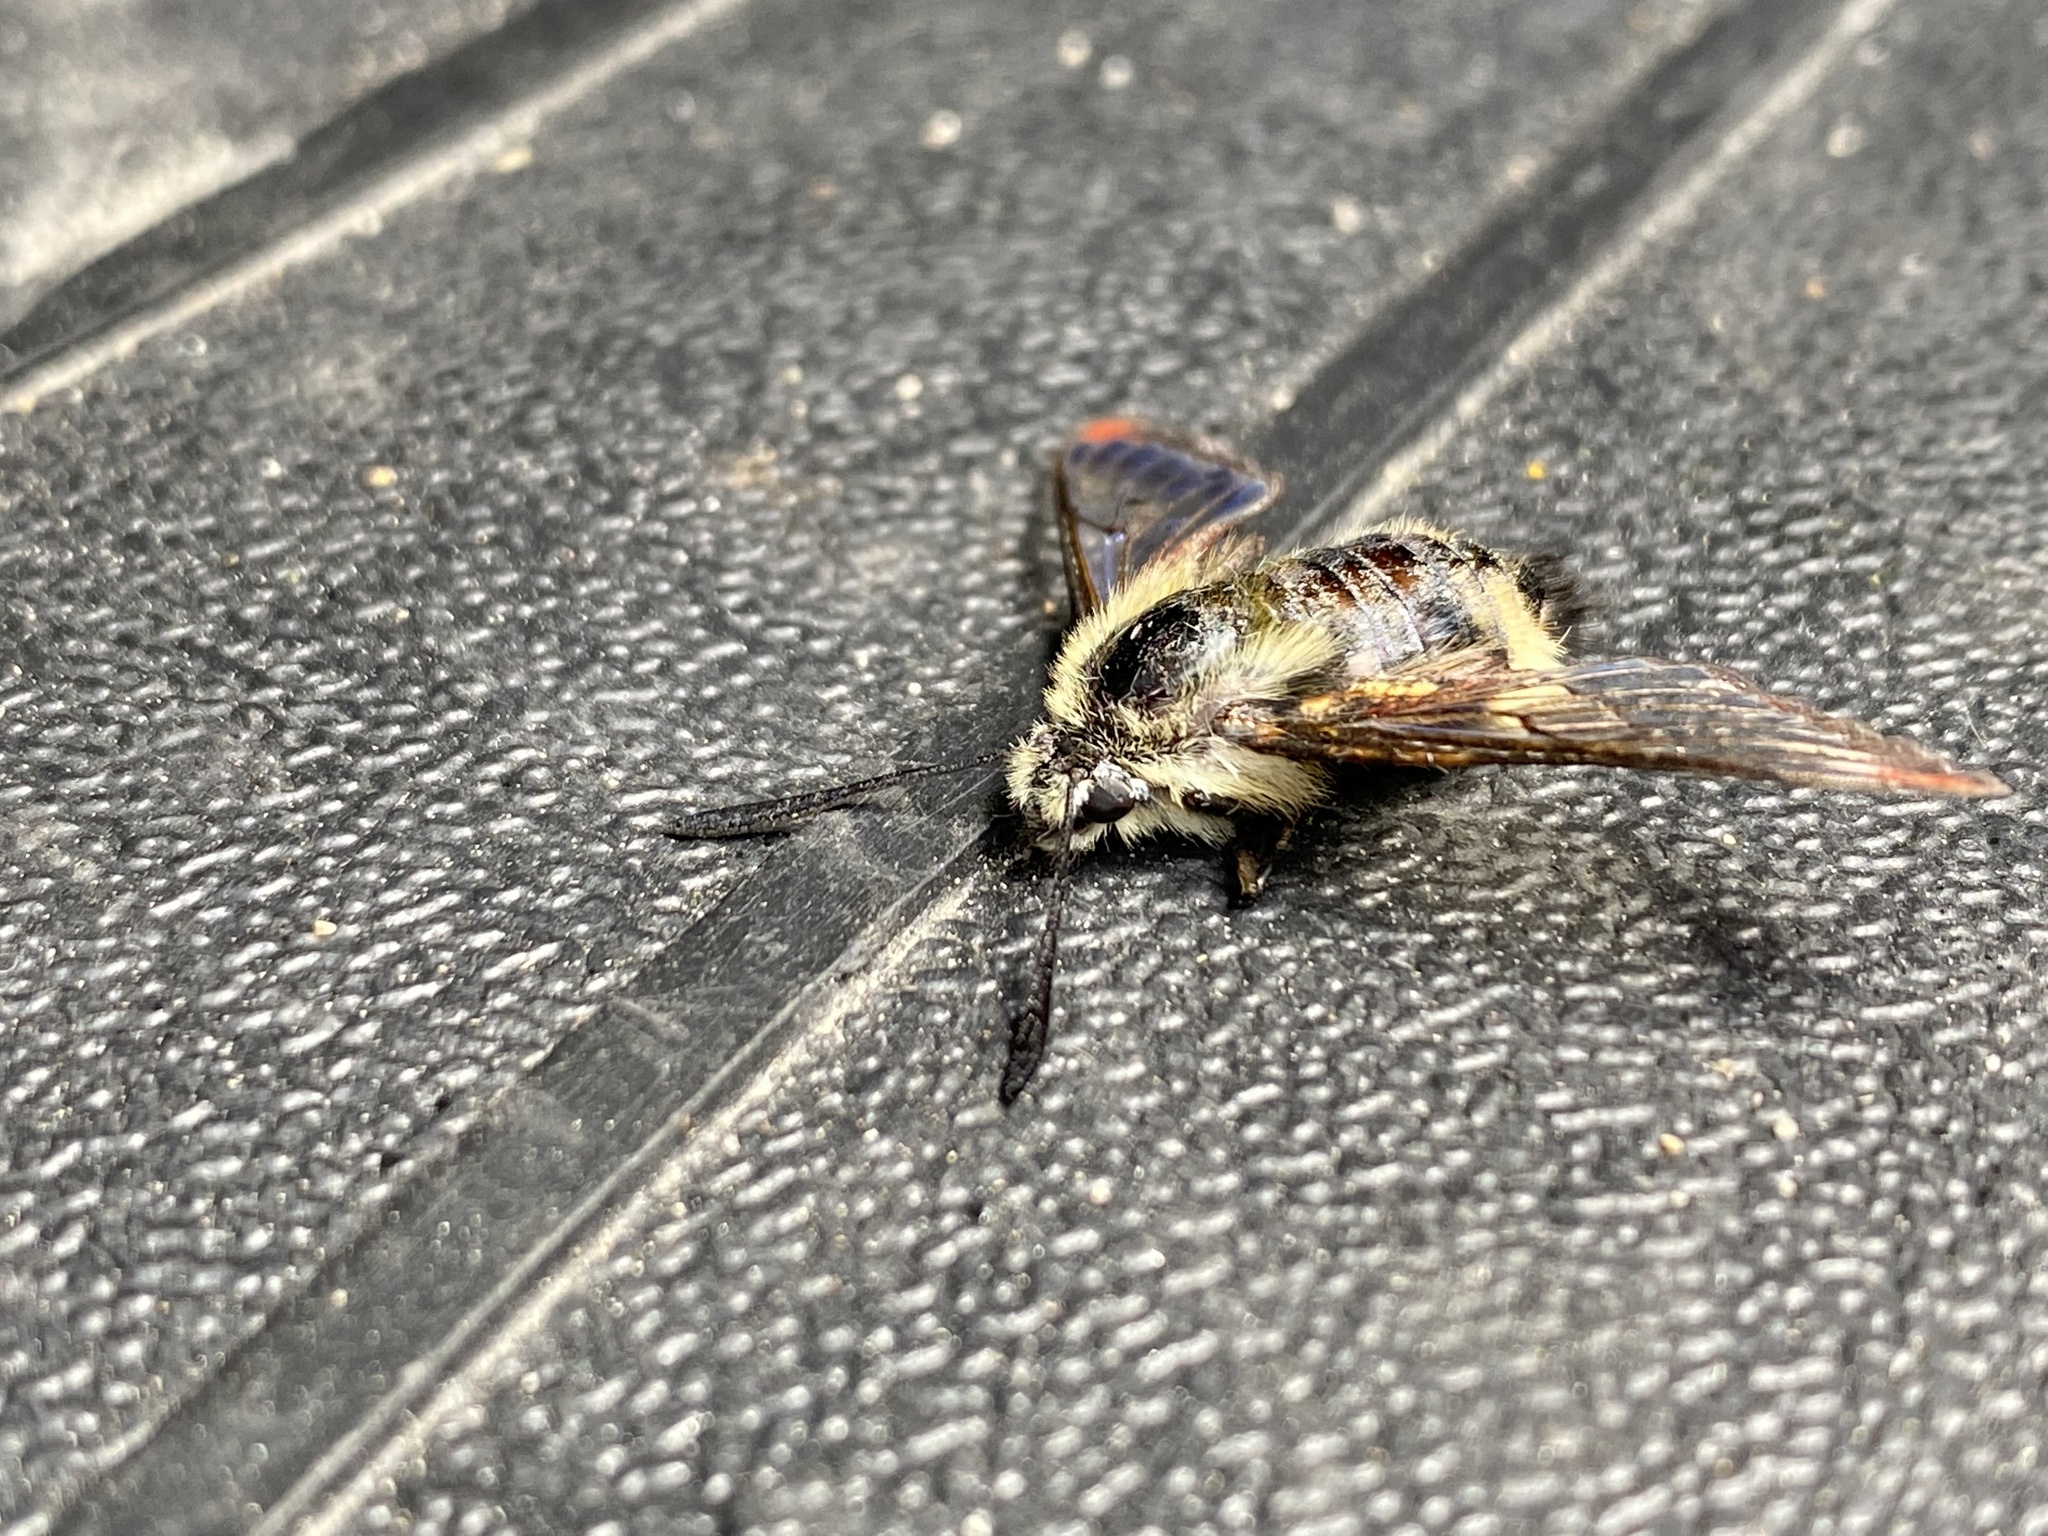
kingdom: Animalia
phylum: Arthropoda
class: Insecta
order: Lepidoptera
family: Sphingidae
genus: Hemaris
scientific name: Hemaris thetis
